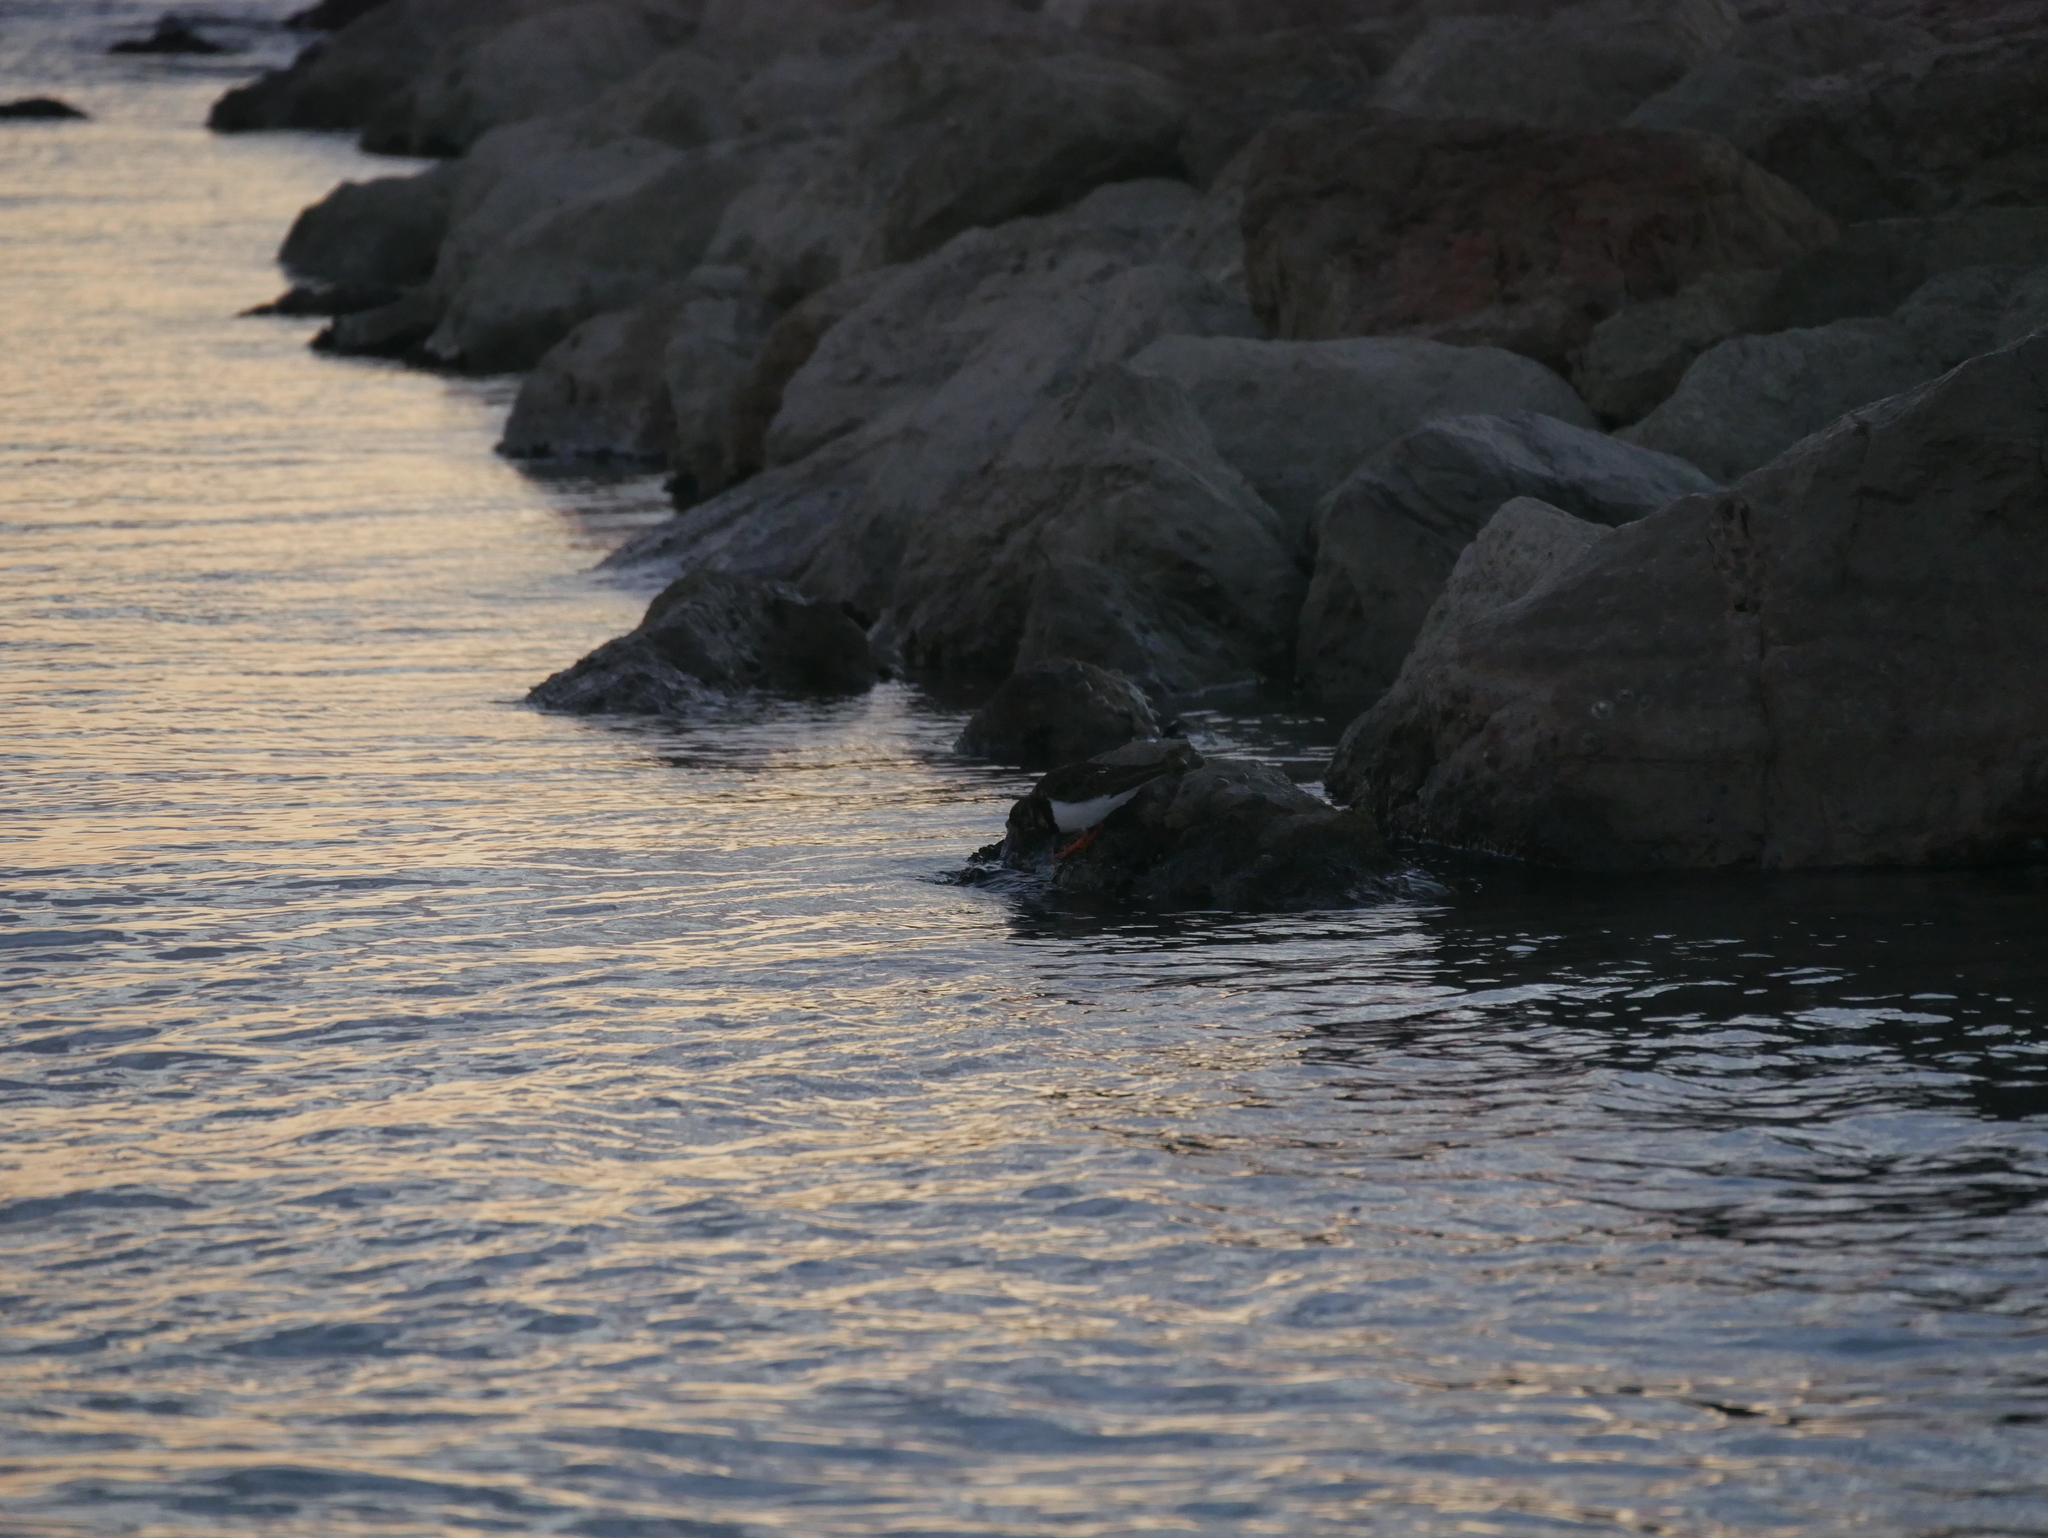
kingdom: Animalia
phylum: Chordata
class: Aves
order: Charadriiformes
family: Scolopacidae
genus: Arenaria
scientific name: Arenaria interpres
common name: Ruddy turnstone
